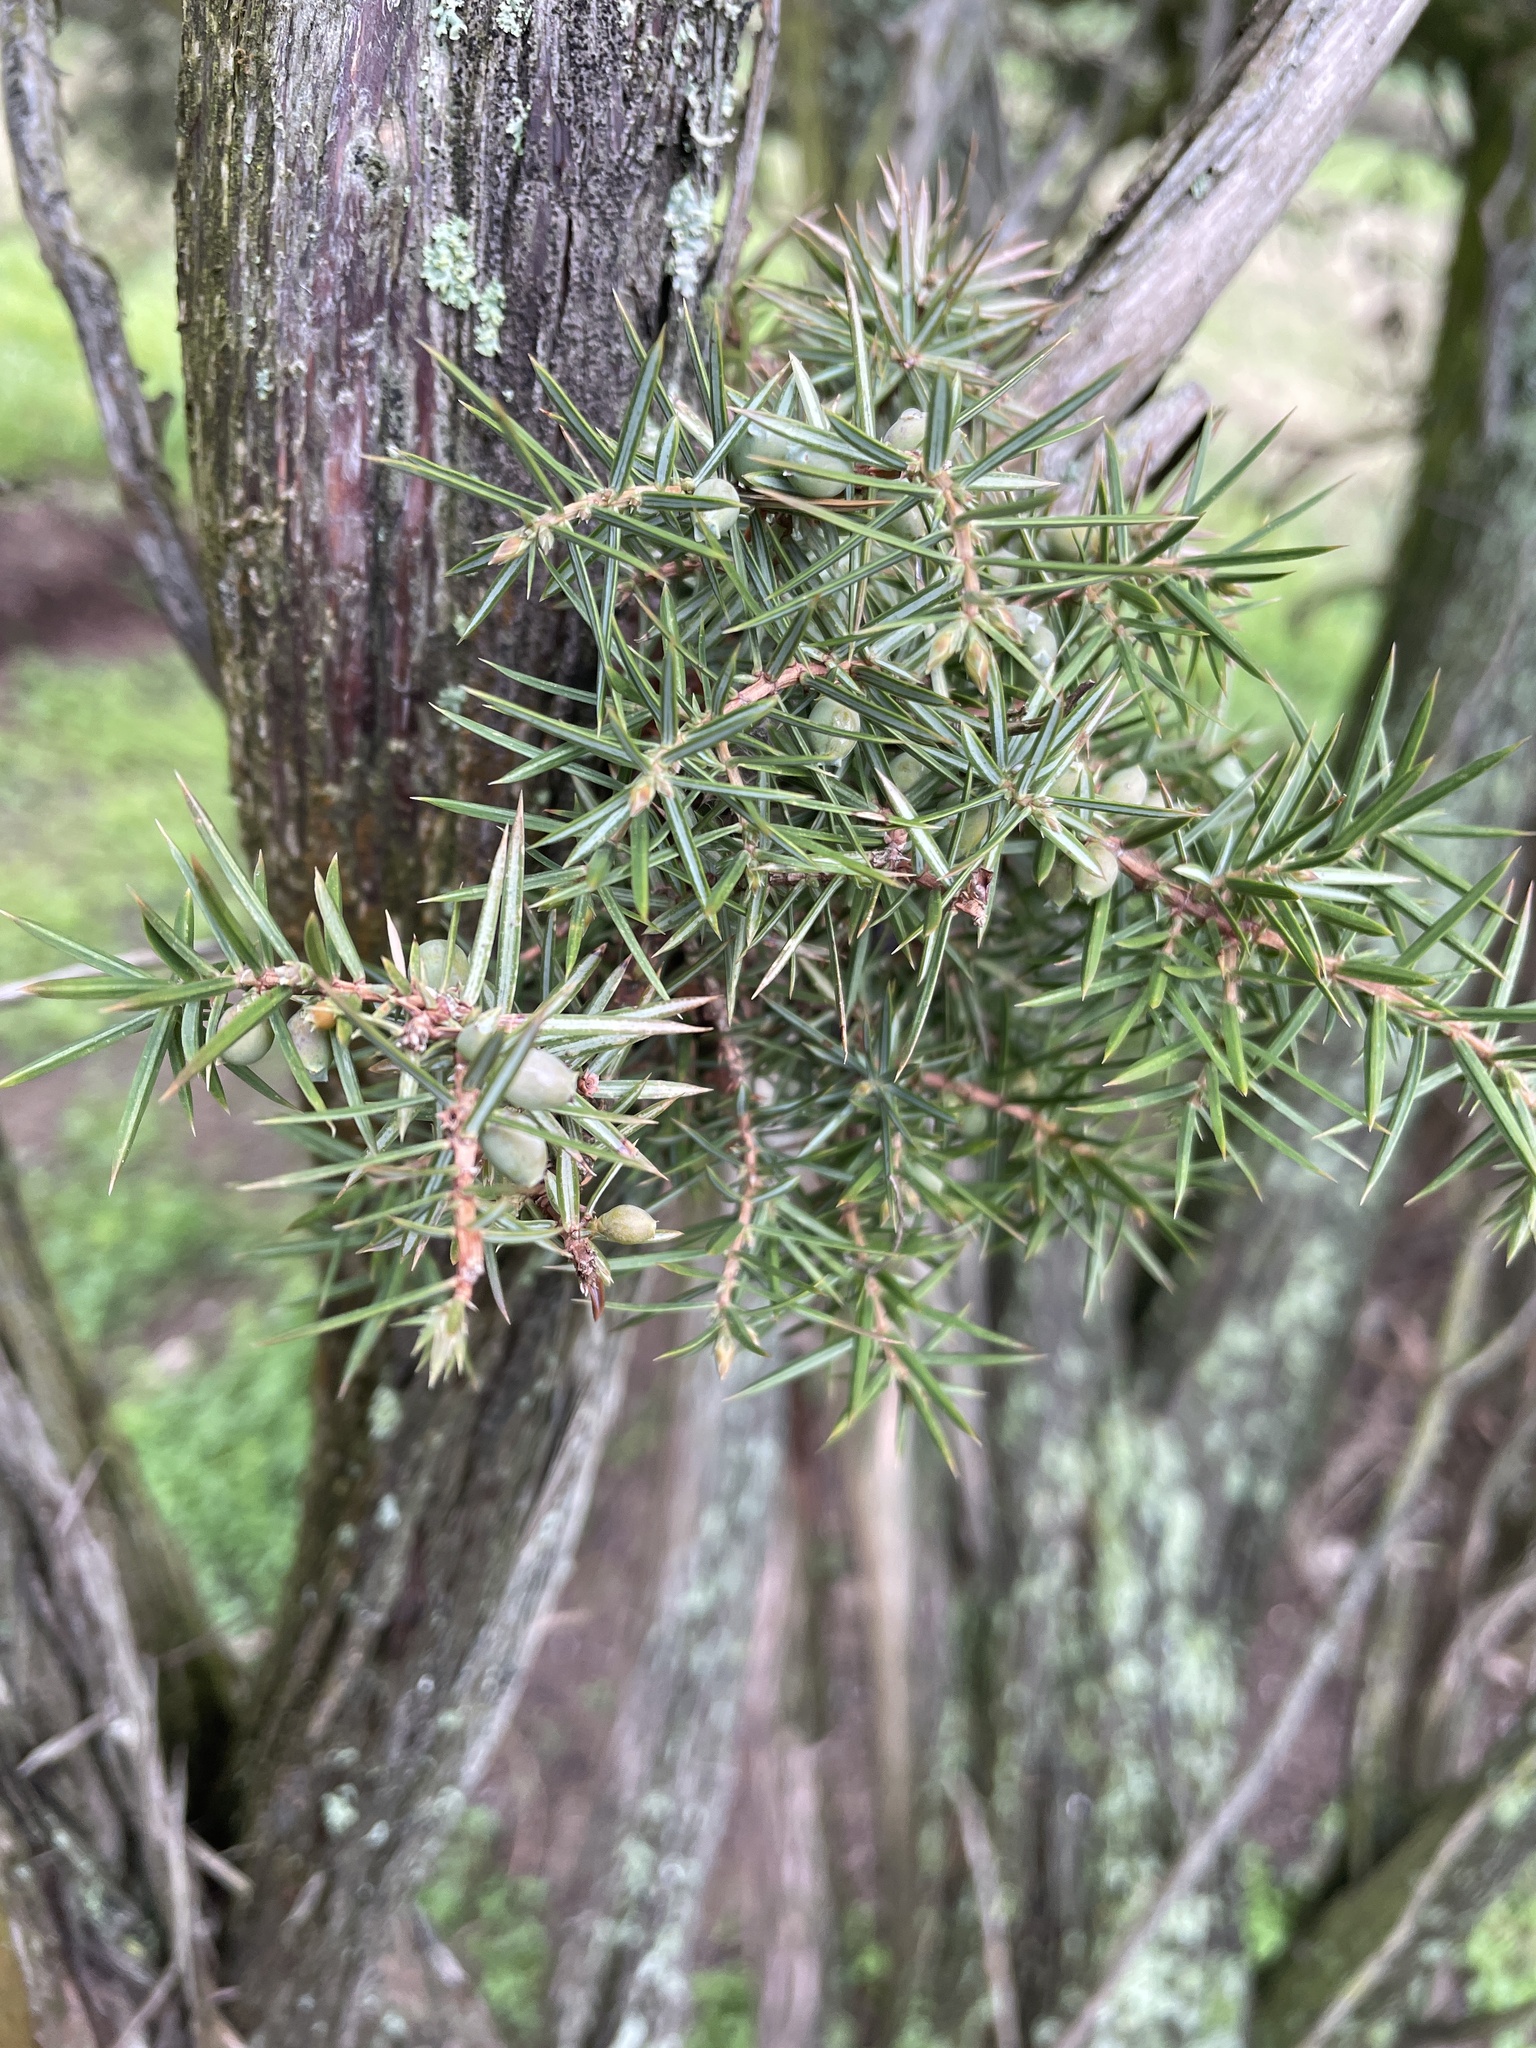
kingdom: Plantae
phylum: Tracheophyta
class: Pinopsida
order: Pinales
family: Cupressaceae
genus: Juniperus
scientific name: Juniperus communis
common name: Common juniper
